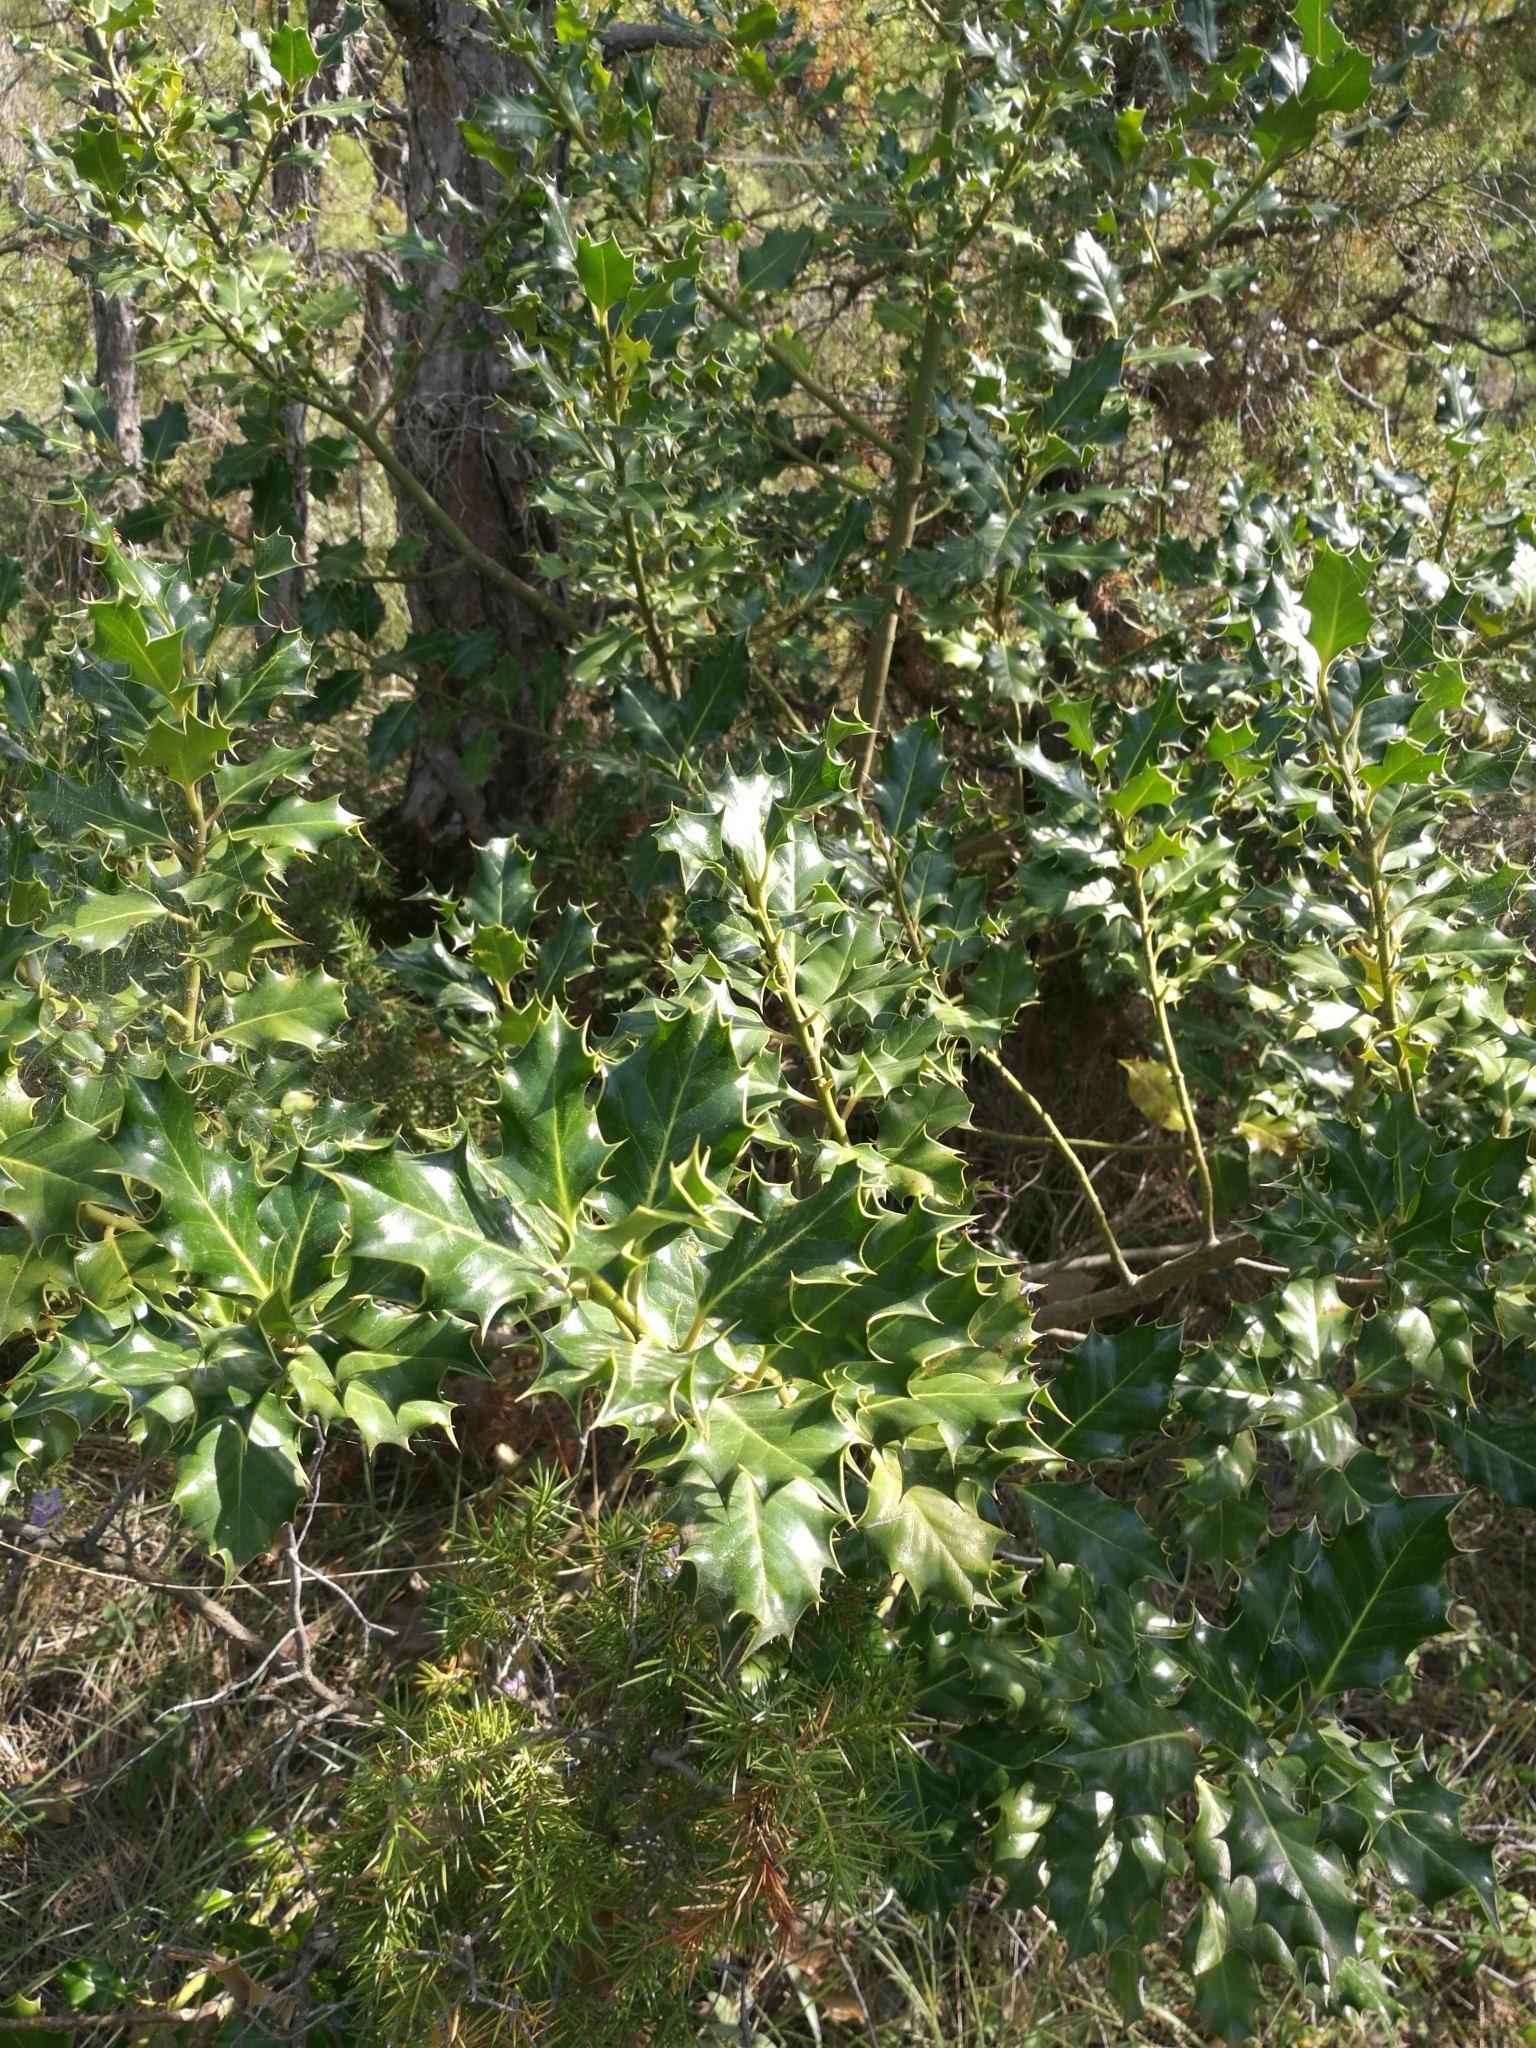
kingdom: Plantae
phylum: Tracheophyta
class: Magnoliopsida
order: Aquifoliales
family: Aquifoliaceae
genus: Ilex
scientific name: Ilex aquifolium
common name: English holly
